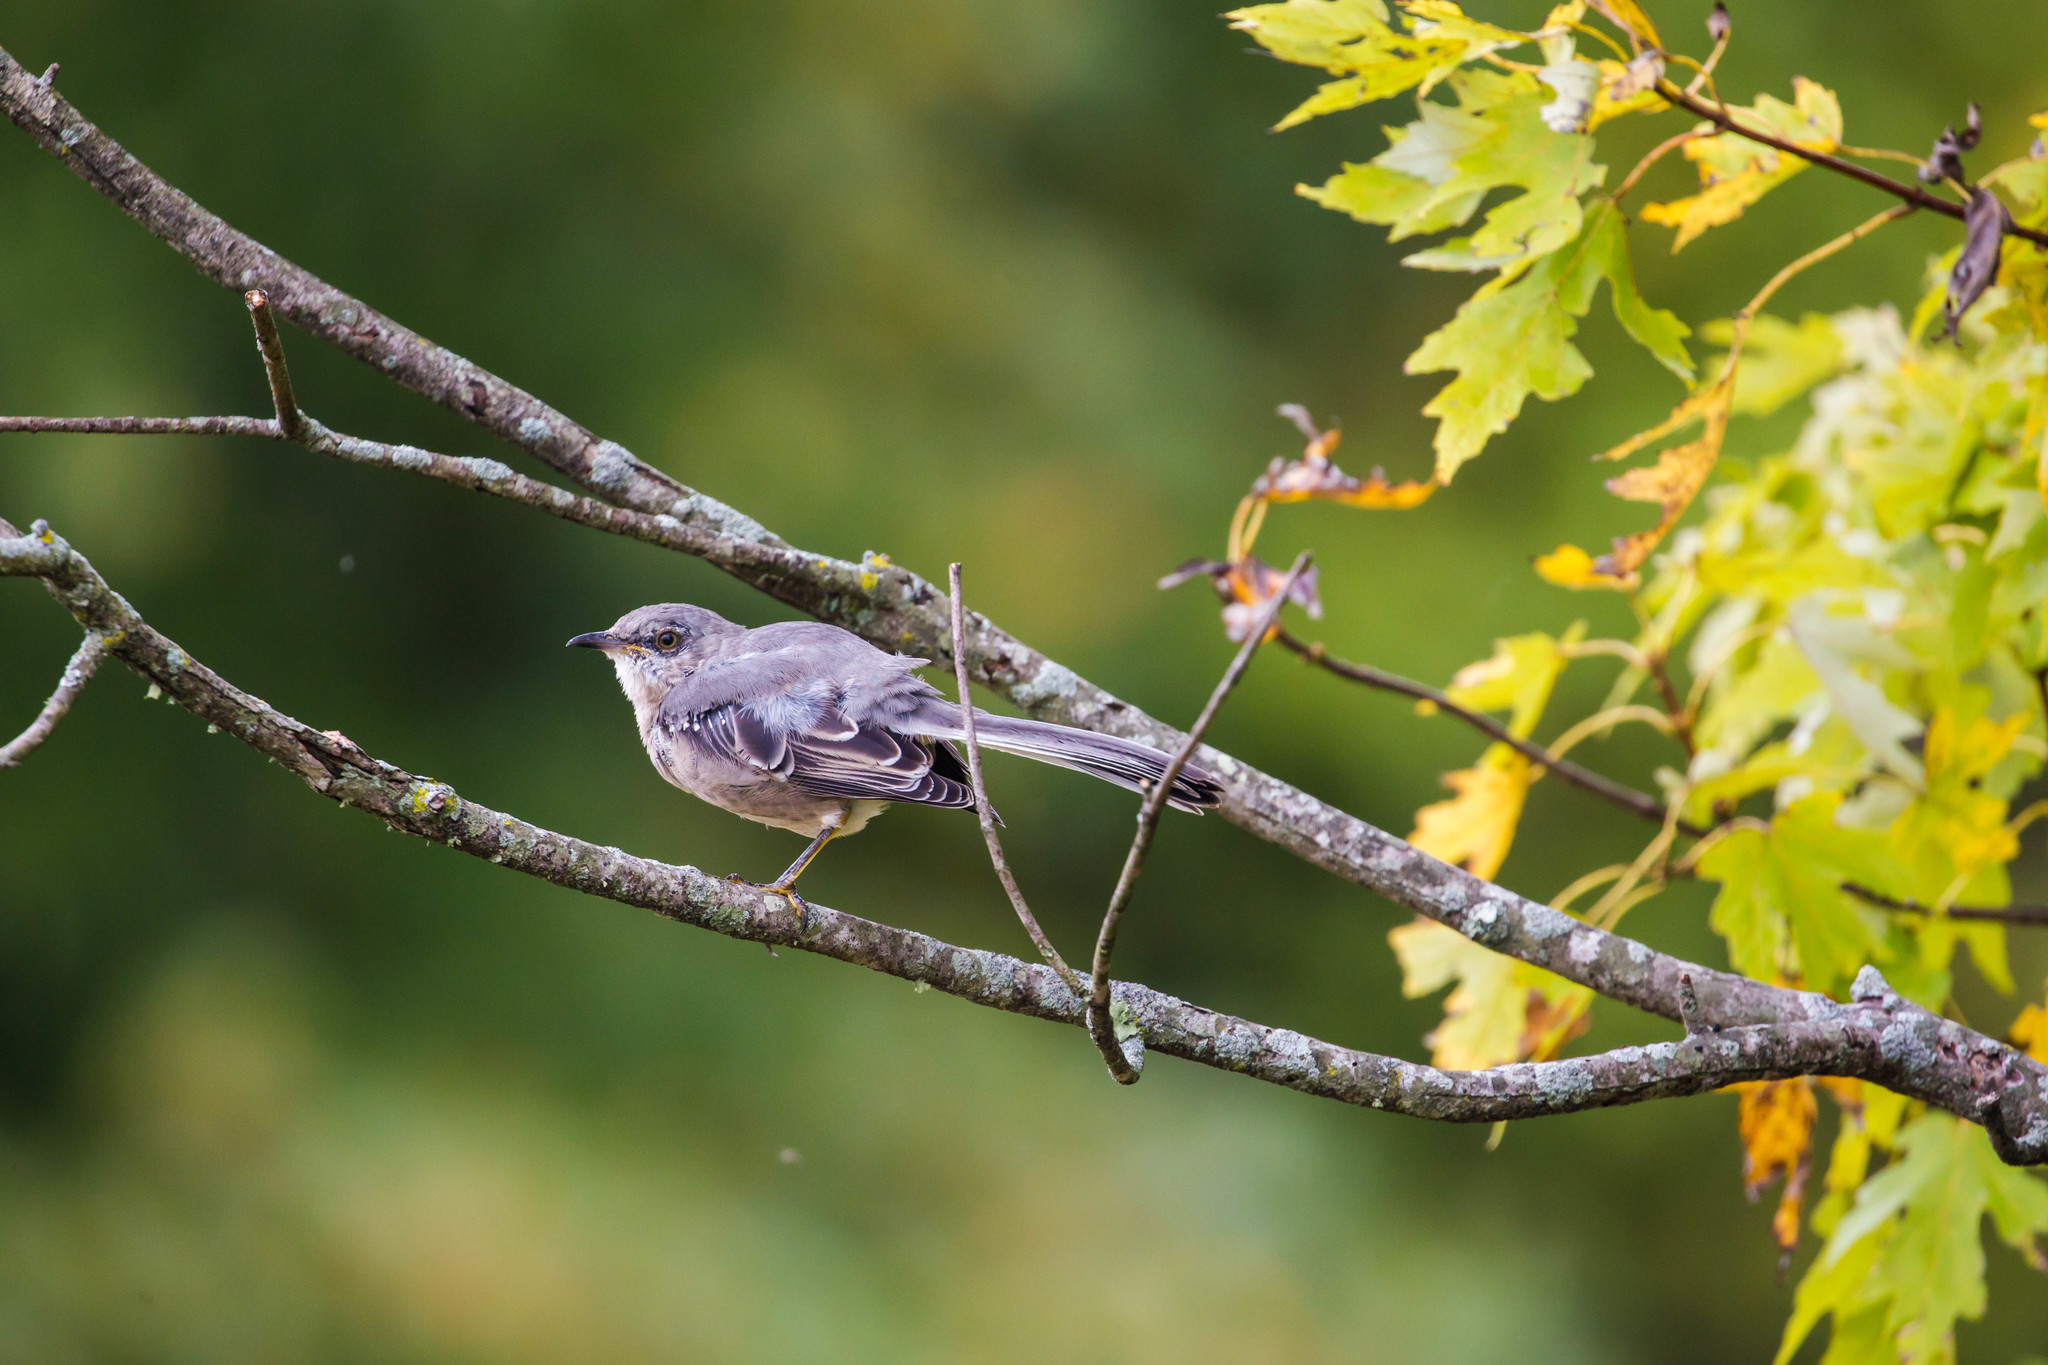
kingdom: Animalia
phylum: Chordata
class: Aves
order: Passeriformes
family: Mimidae
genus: Mimus
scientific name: Mimus polyglottos
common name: Northern mockingbird
